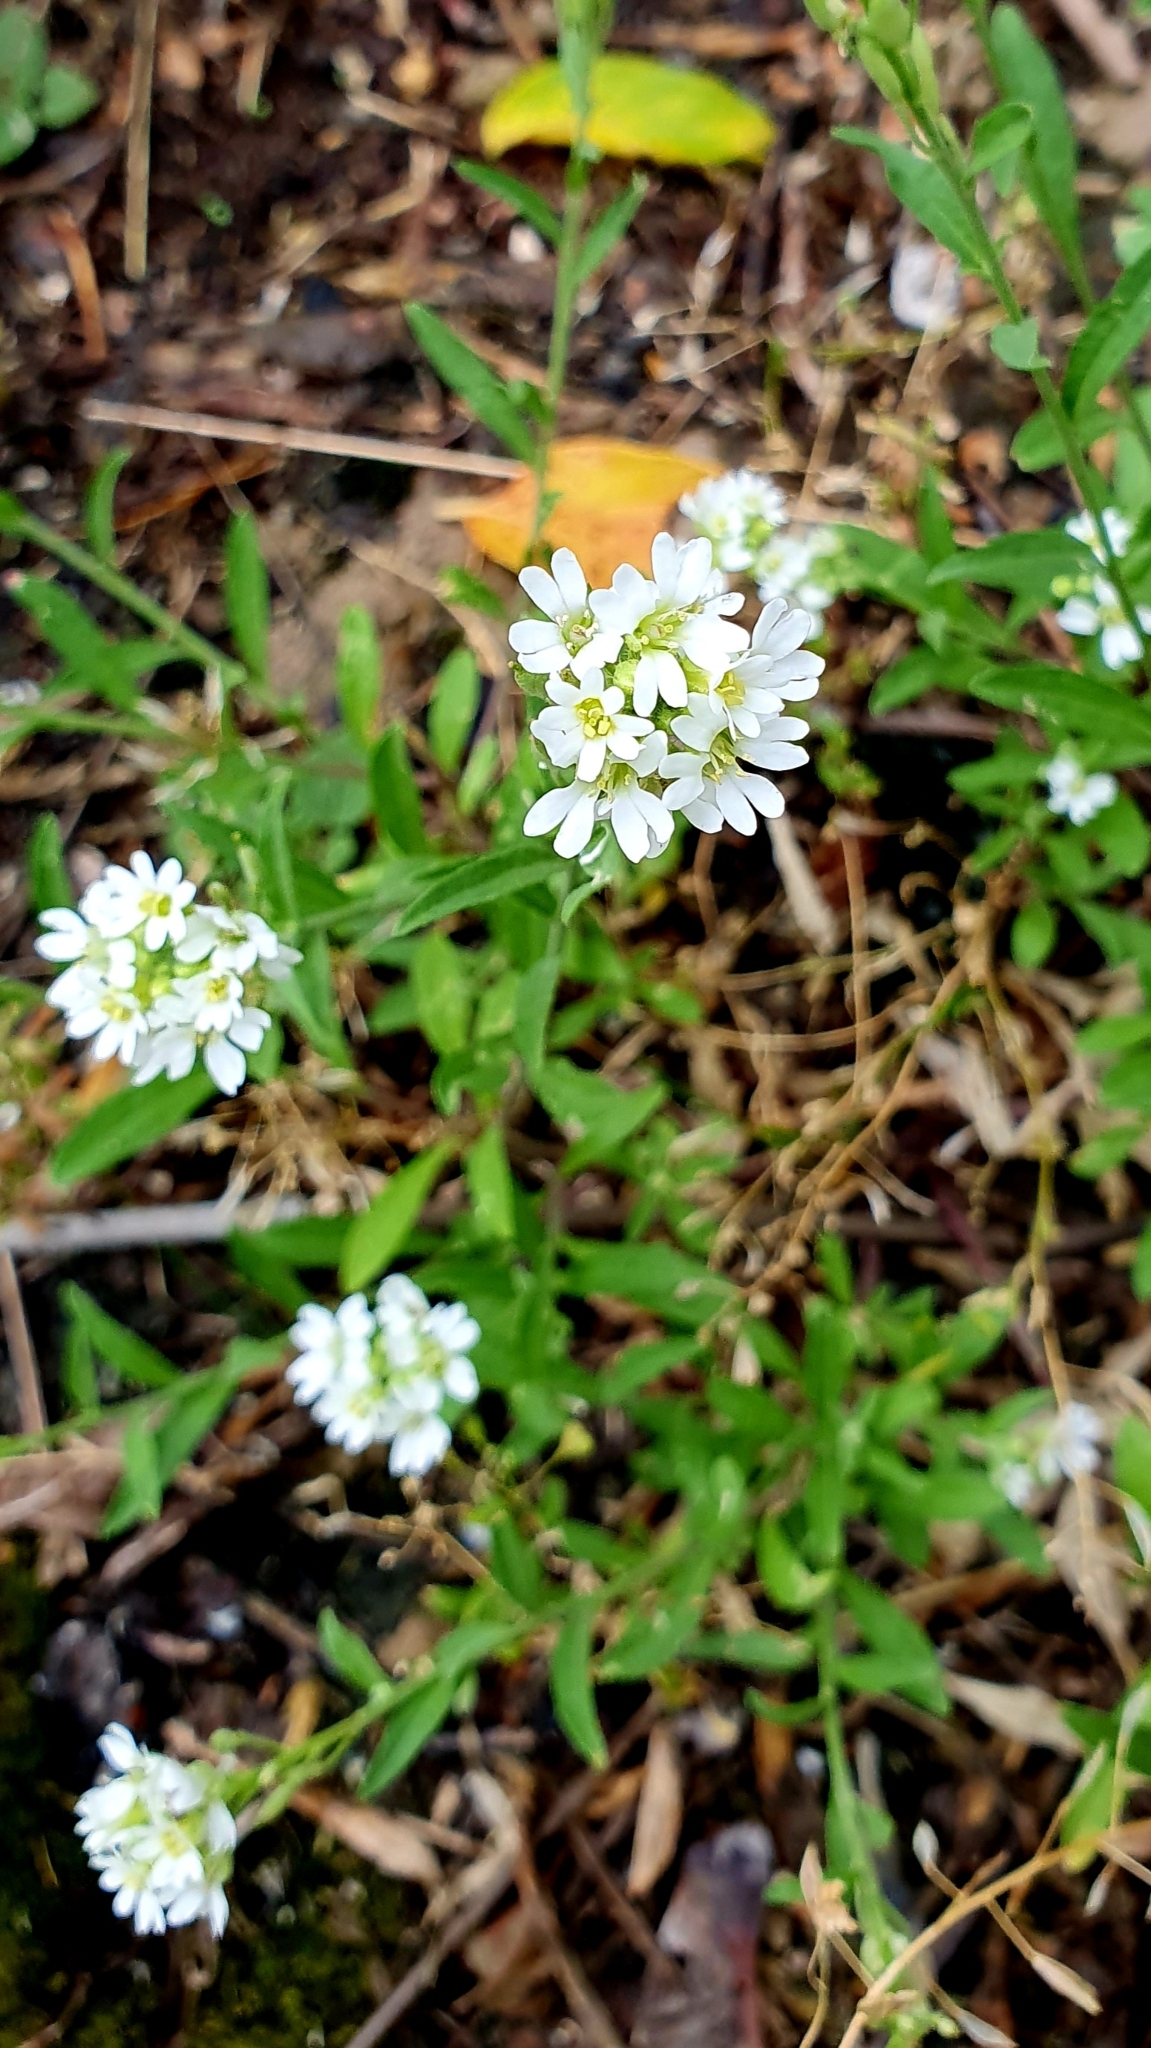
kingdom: Plantae
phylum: Tracheophyta
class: Magnoliopsida
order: Brassicales
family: Brassicaceae
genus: Berteroa
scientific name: Berteroa incana
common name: Hoary alison
